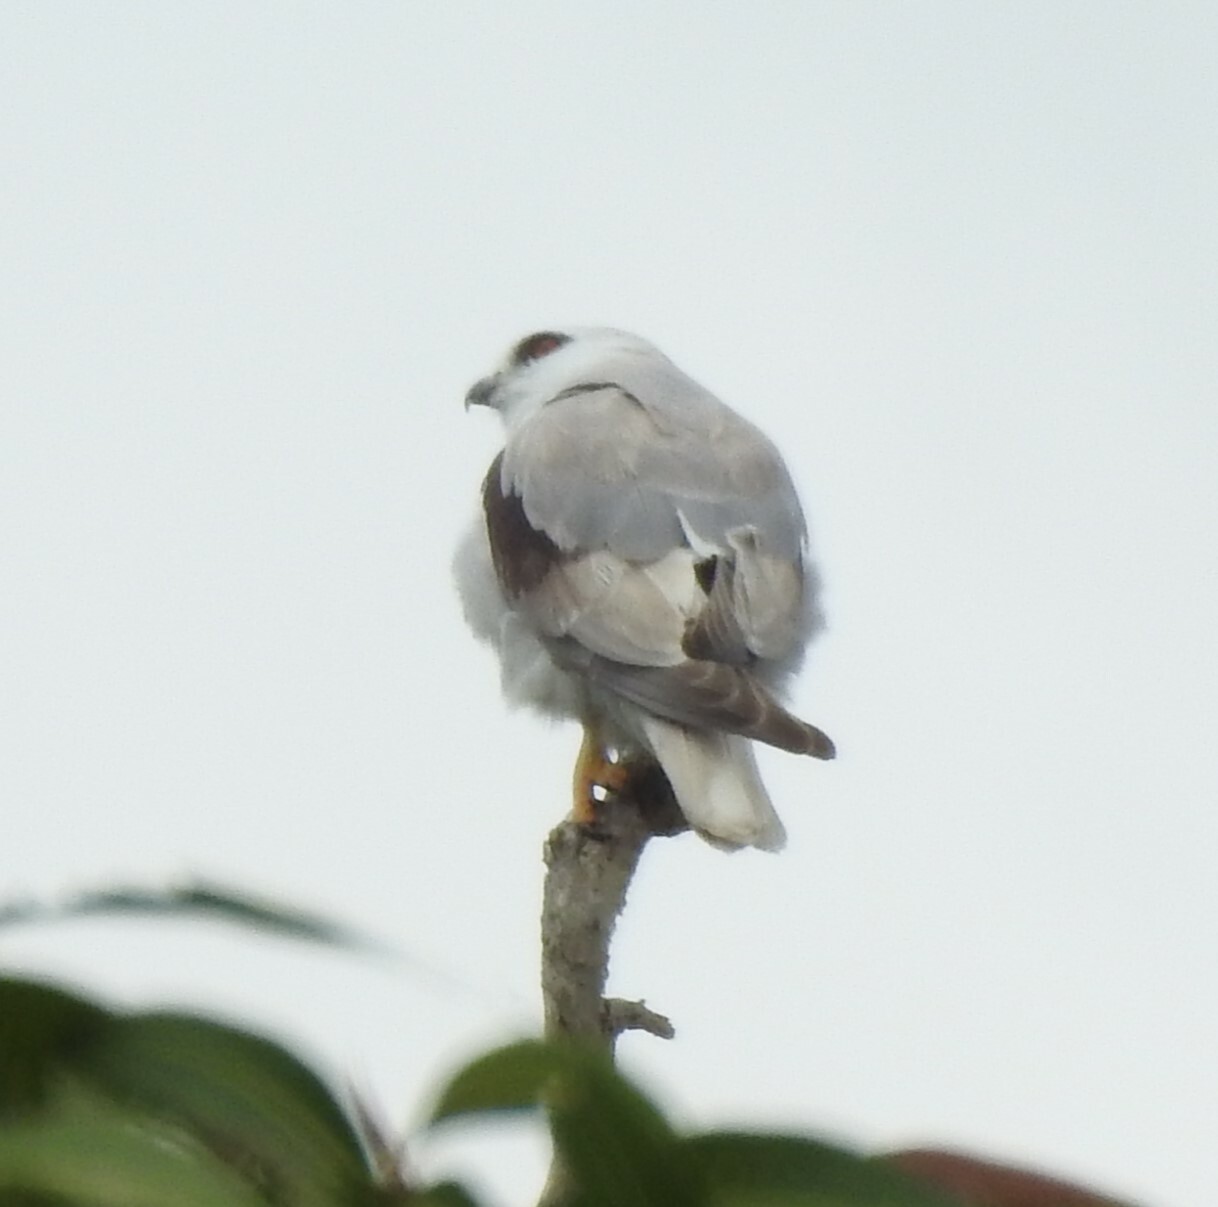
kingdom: Animalia
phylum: Chordata
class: Aves
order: Accipitriformes
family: Accipitridae
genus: Elanus
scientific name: Elanus axillaris
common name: Black-shouldered kite
